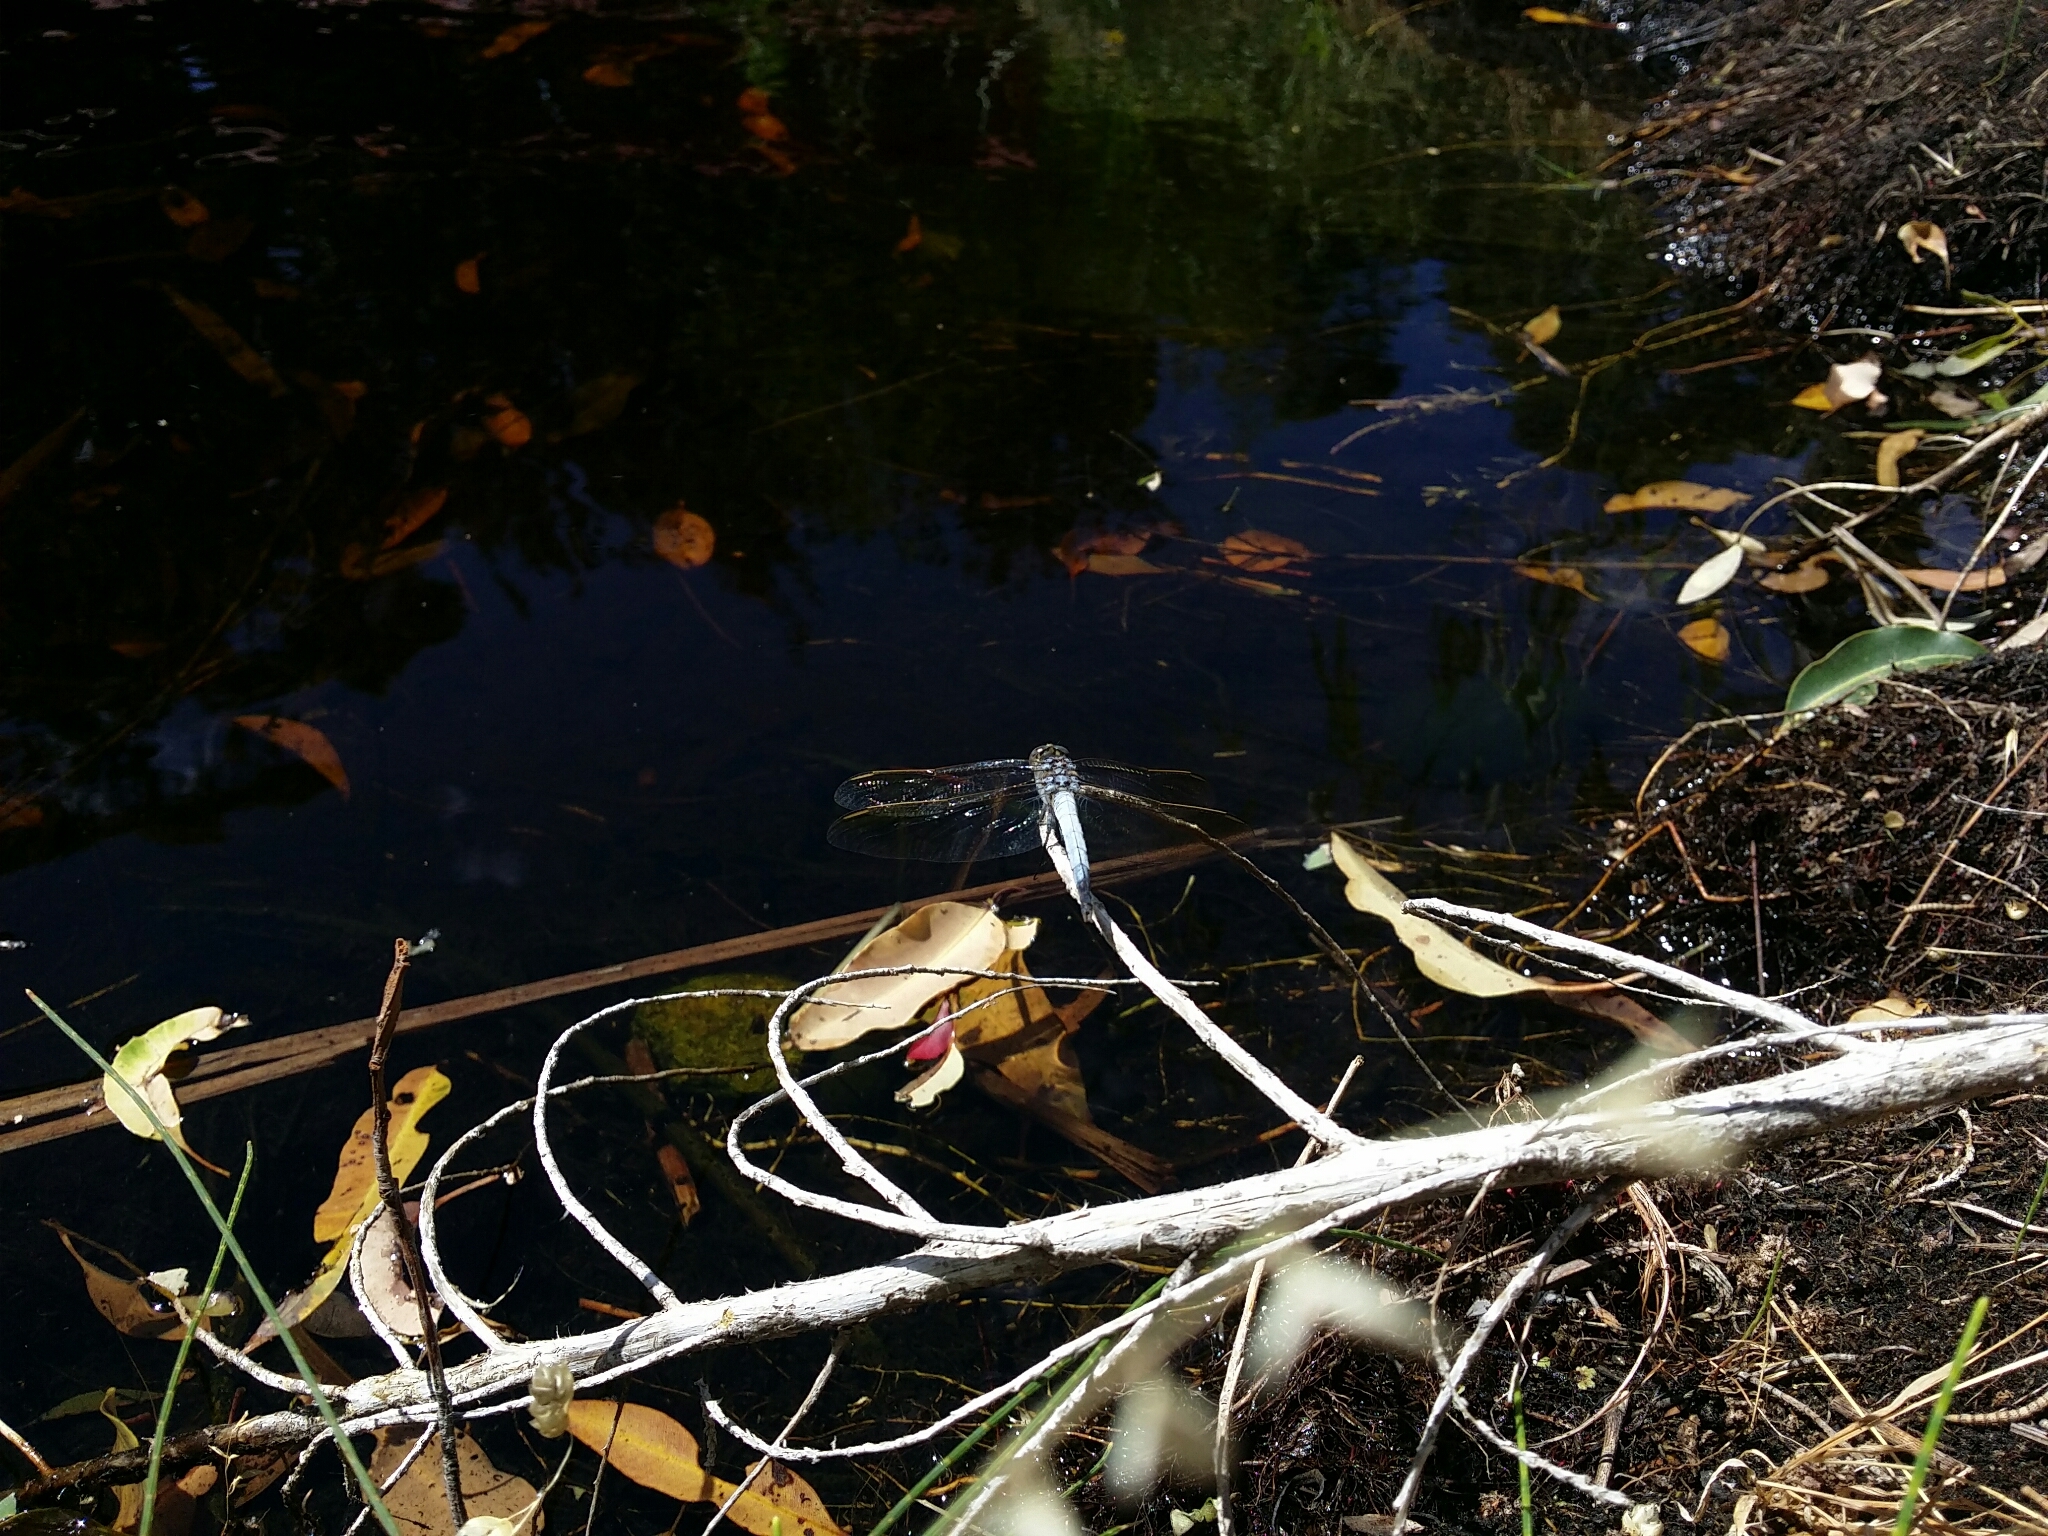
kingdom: Animalia
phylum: Arthropoda
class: Insecta
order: Odonata
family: Libellulidae
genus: Orthetrum
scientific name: Orthetrum caledonicum
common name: Blue skimmer
